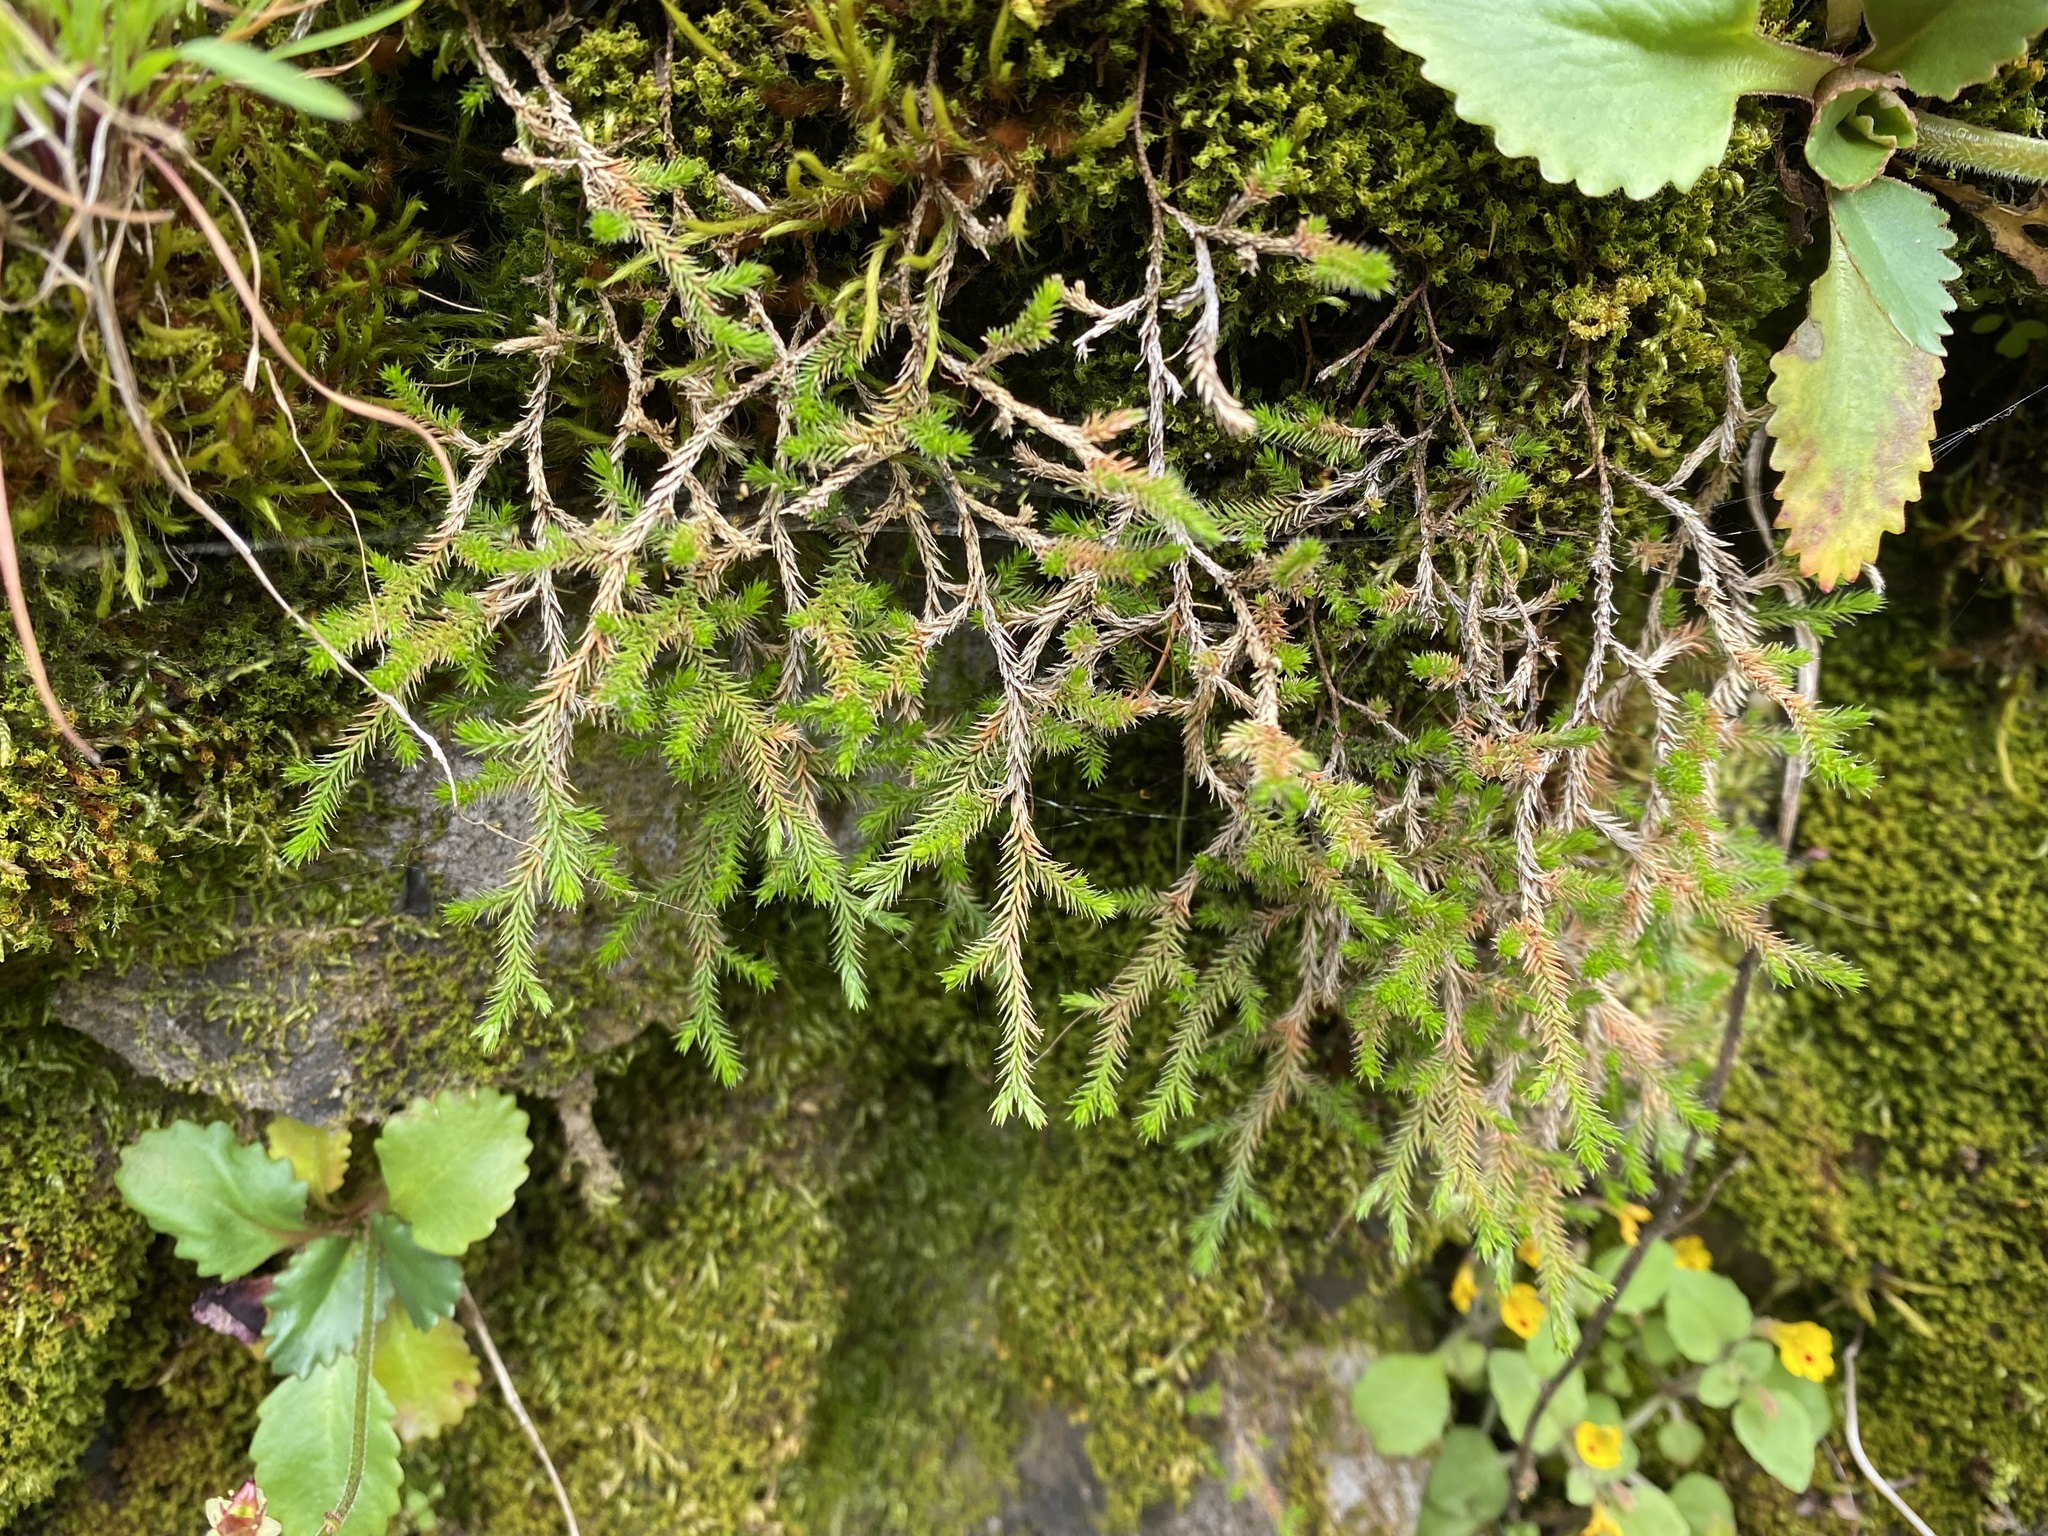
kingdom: Plantae
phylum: Tracheophyta
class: Lycopodiopsida
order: Selaginellales
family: Selaginellaceae
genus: Selaginella
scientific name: Selaginella wallacei
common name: Wallace's selaginella
